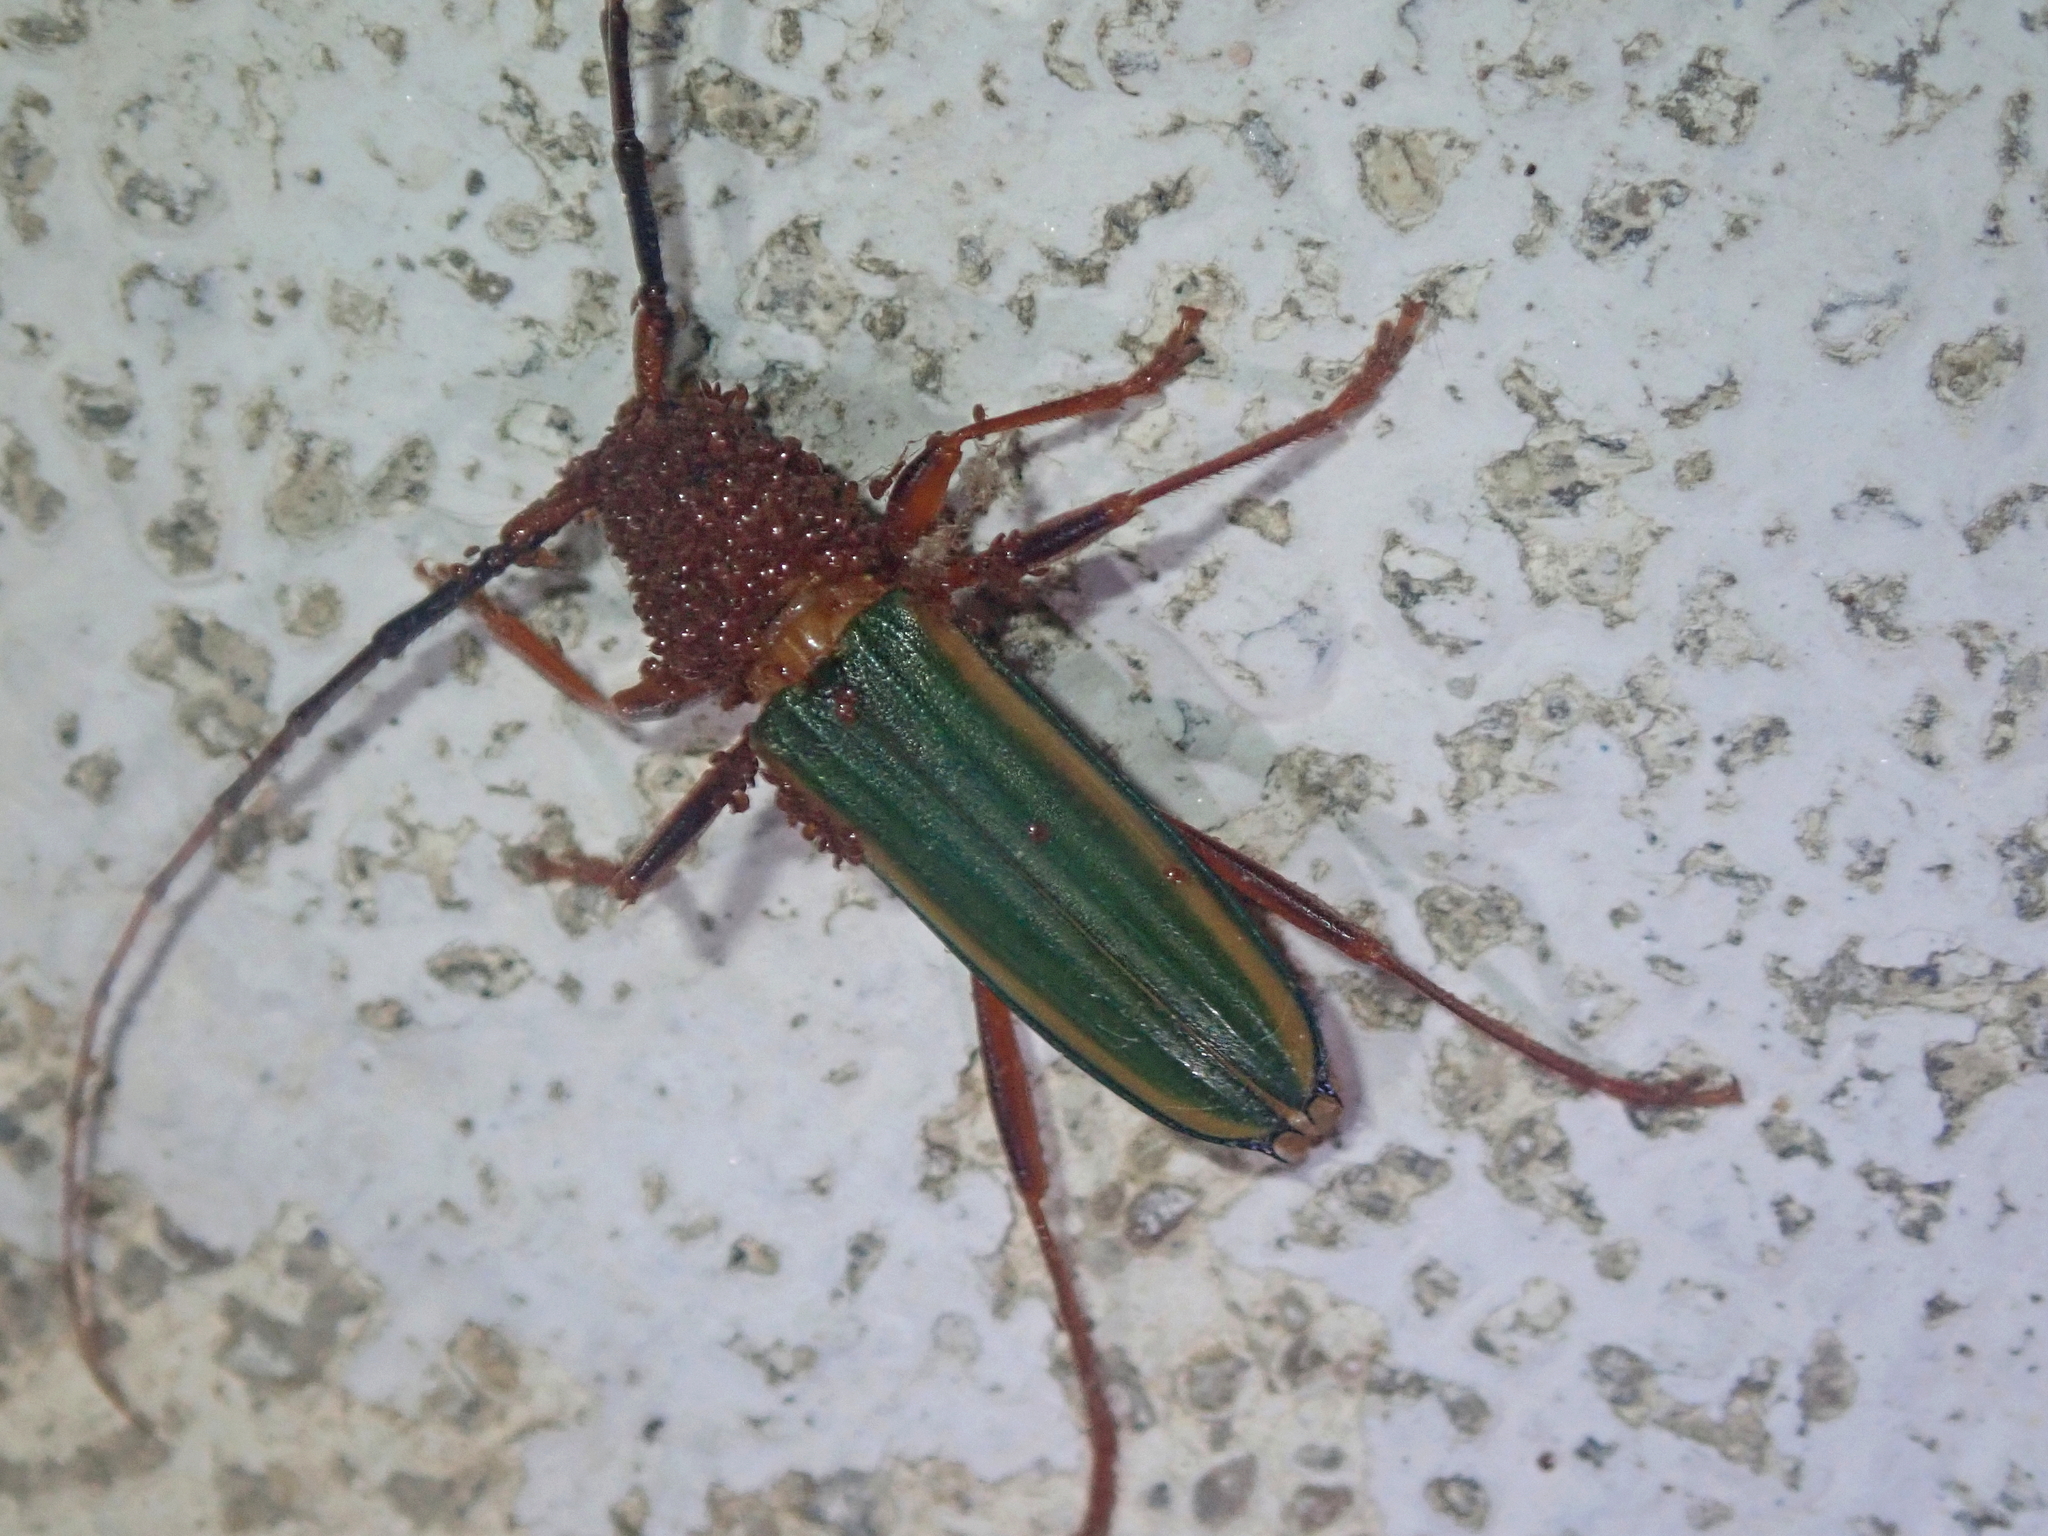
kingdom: Animalia
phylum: Arthropoda
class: Insecta
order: Coleoptera
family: Cerambycidae
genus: Chlorida
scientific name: Chlorida festiva
